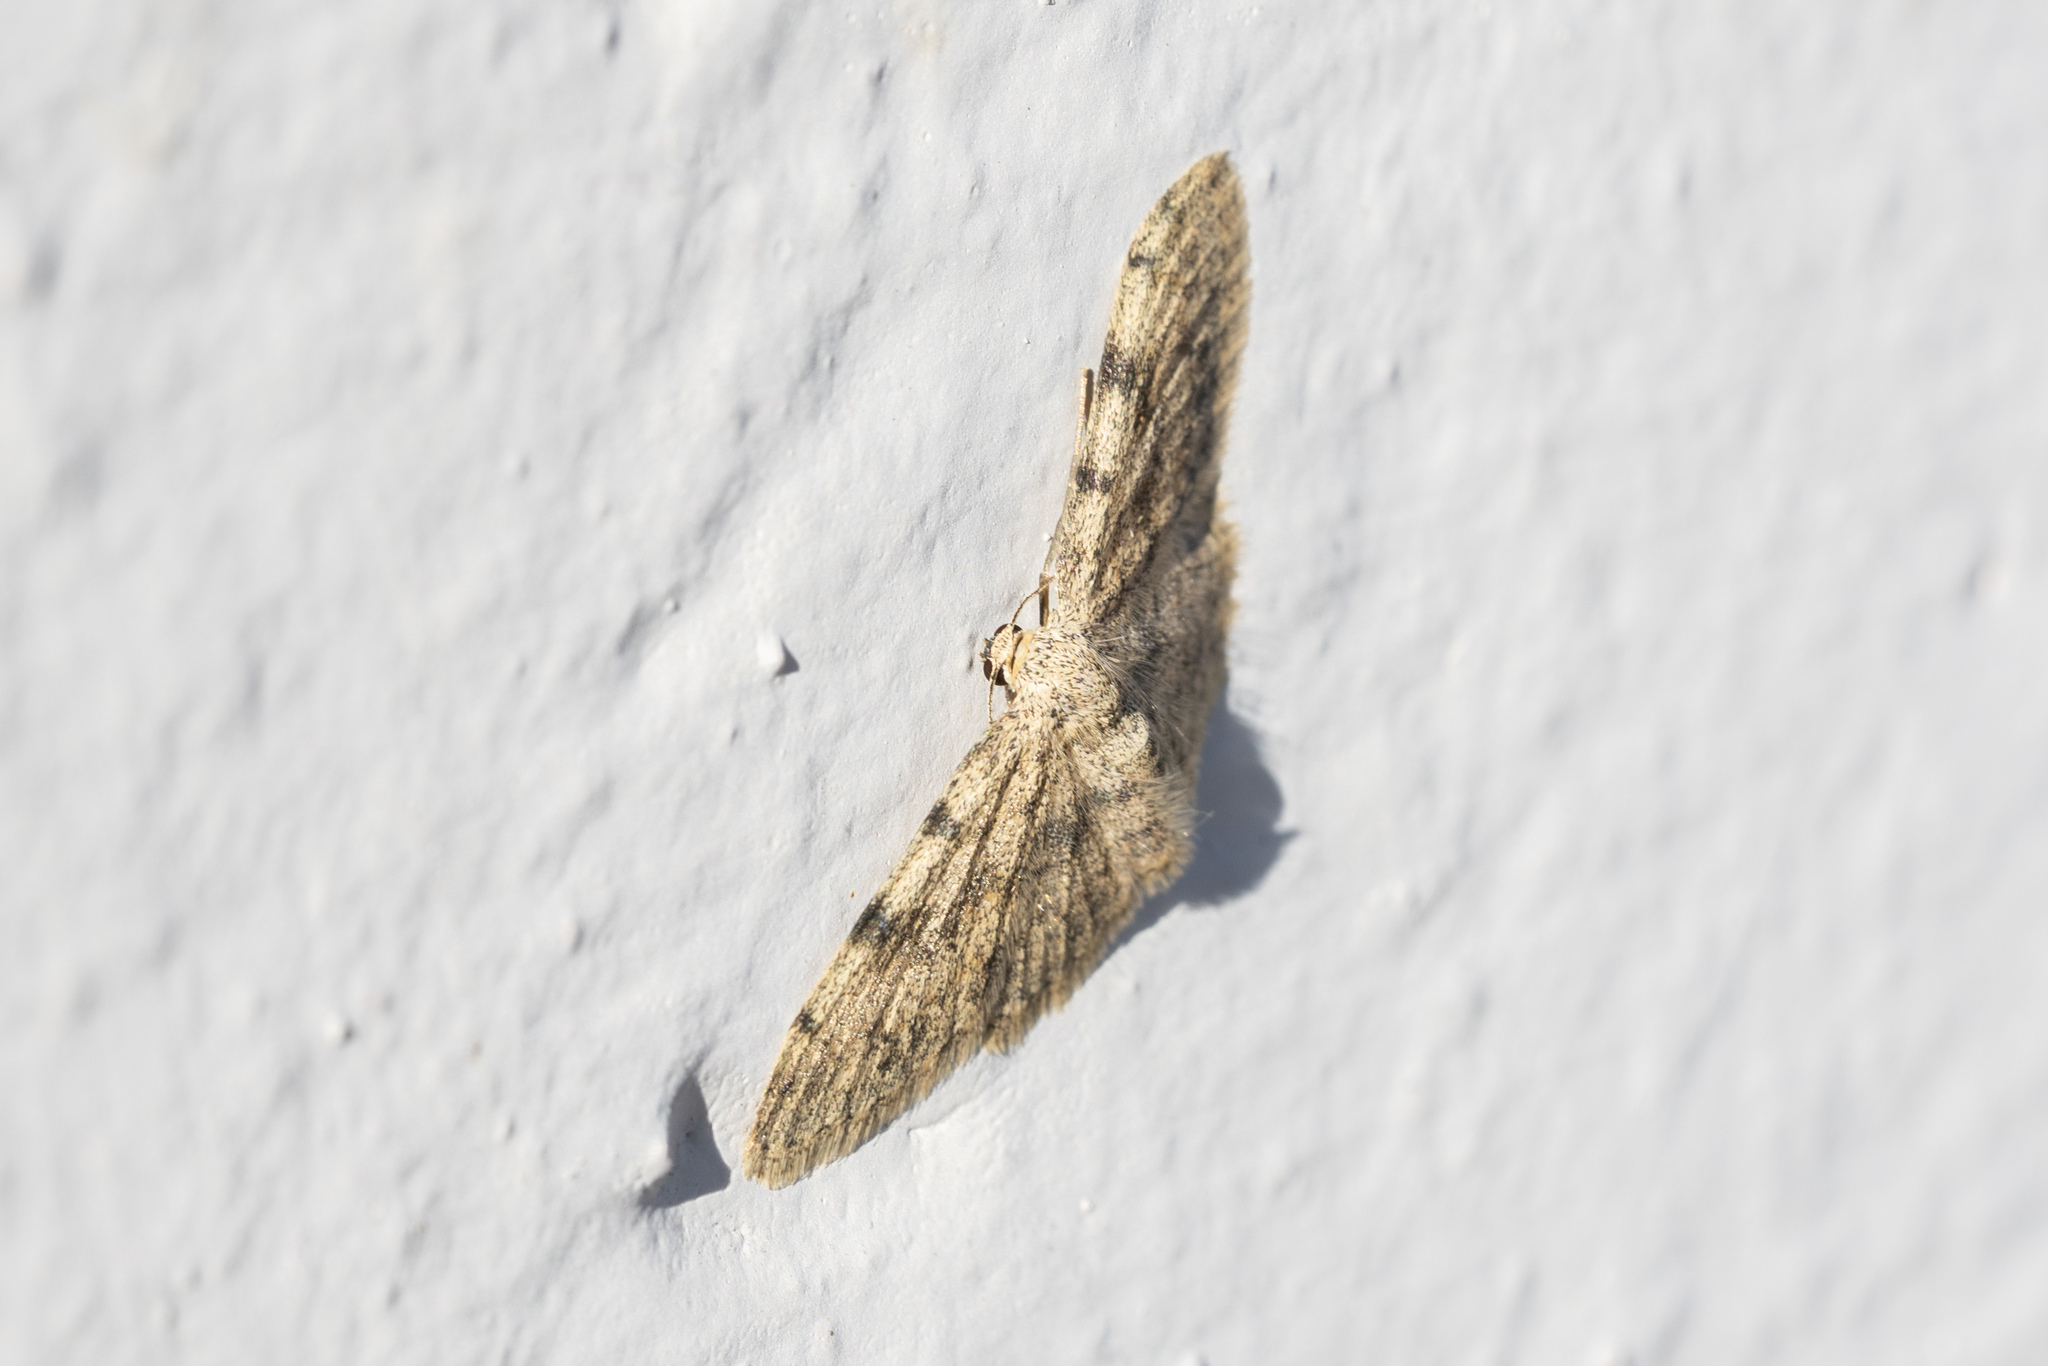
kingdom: Animalia
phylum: Arthropoda
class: Insecta
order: Lepidoptera
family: Geometridae
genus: Scopula
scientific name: Scopula luridata
